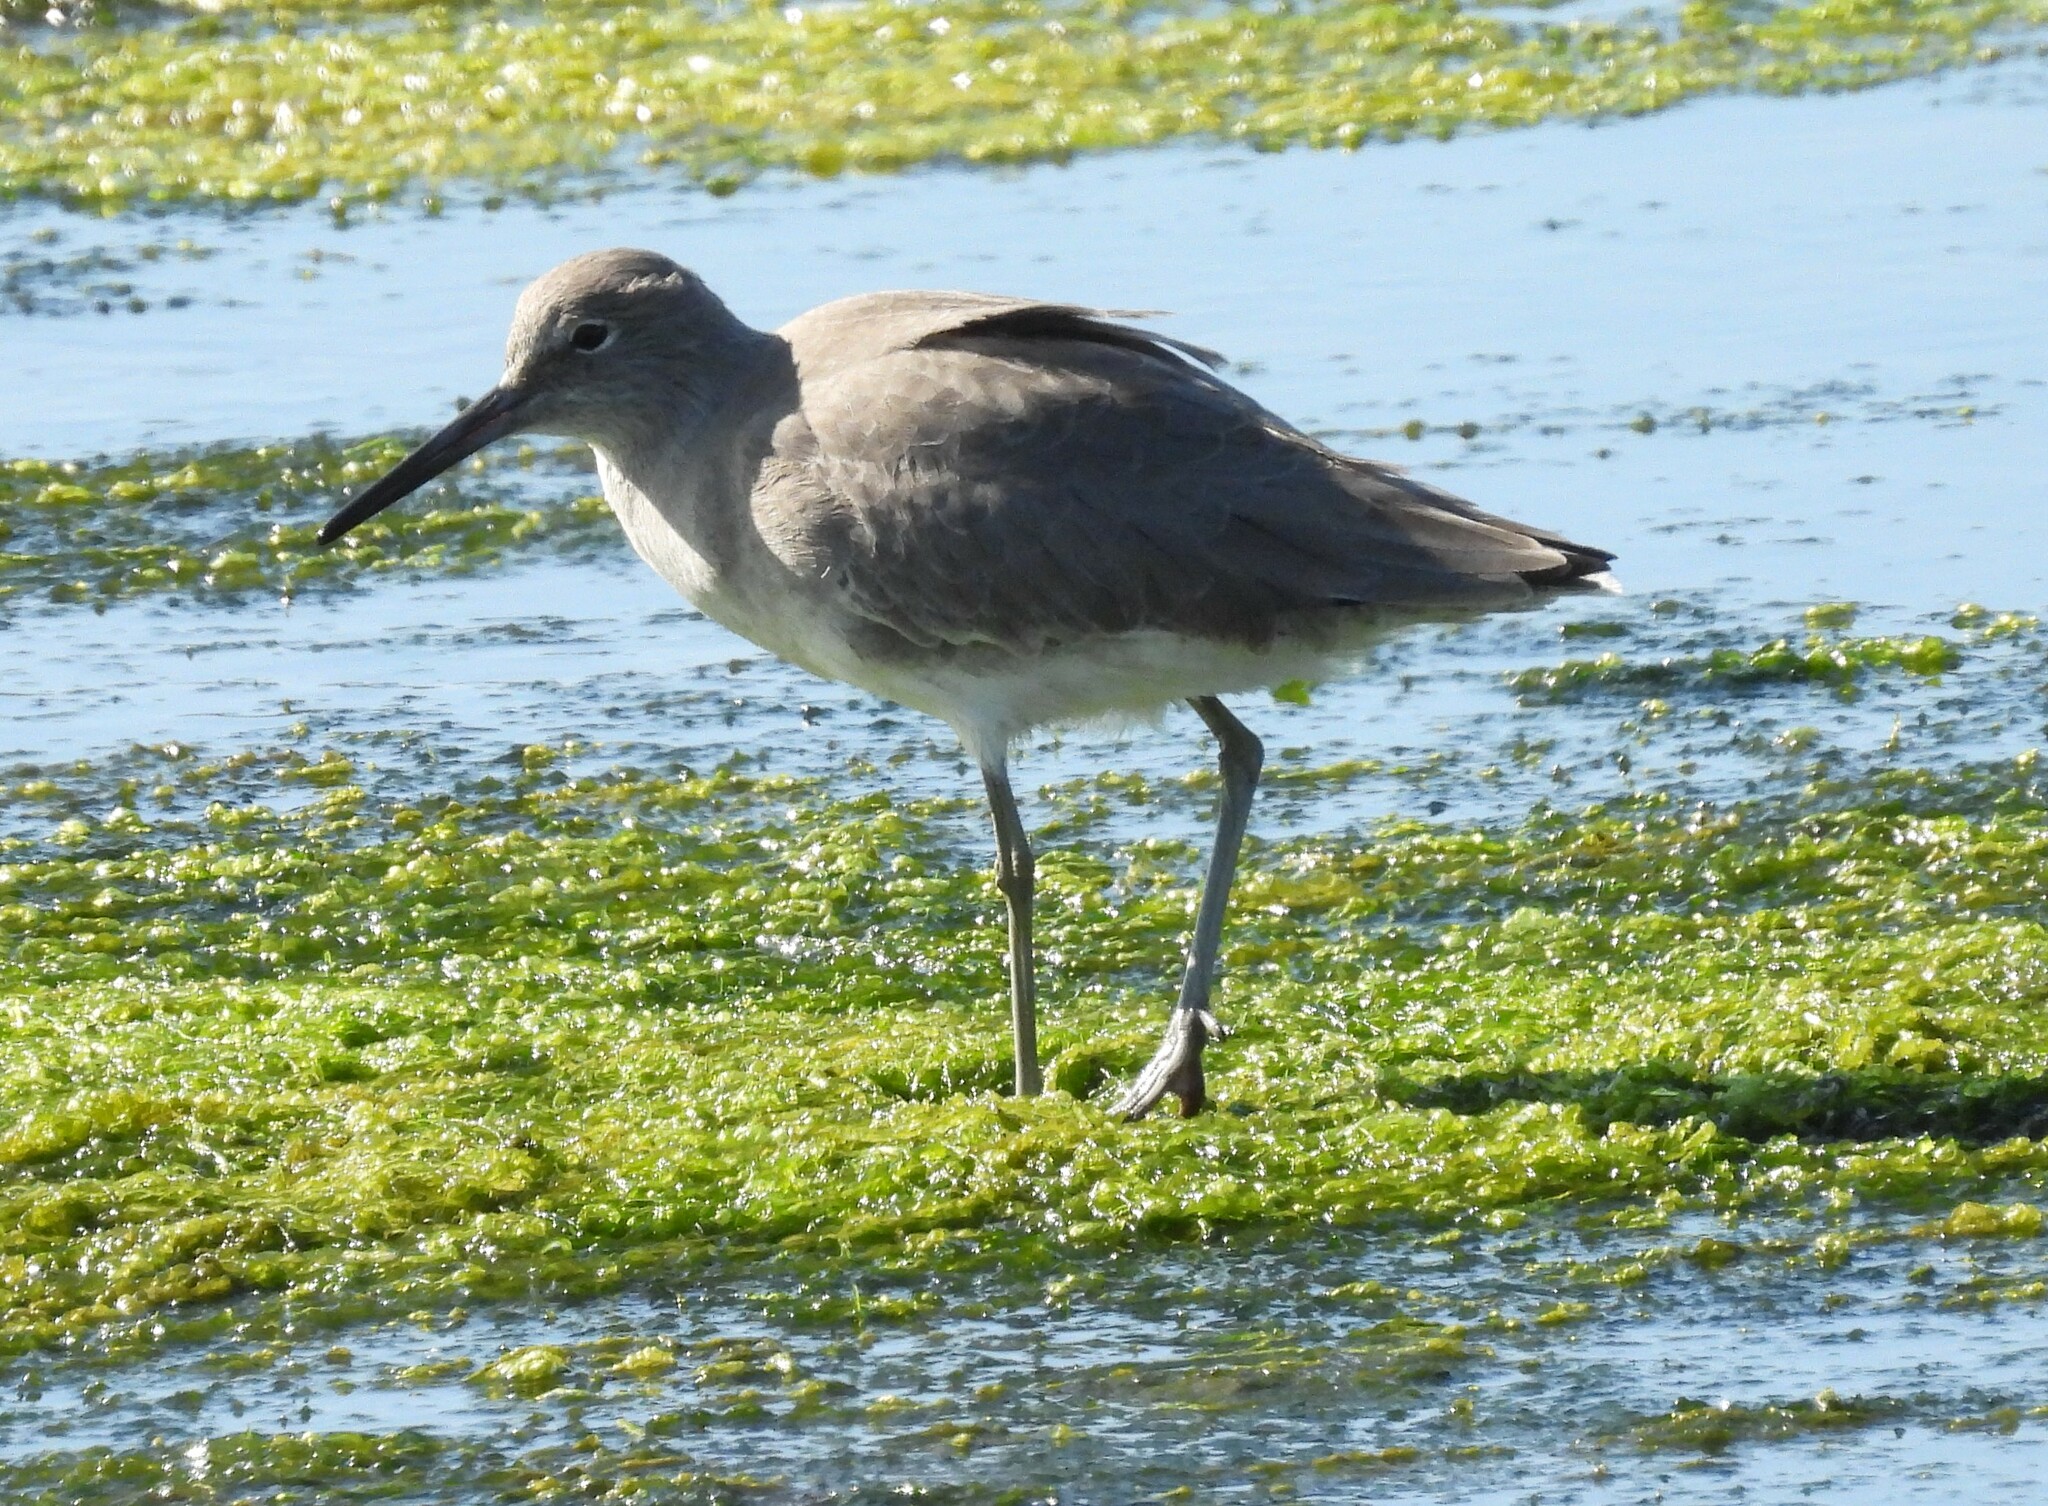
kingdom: Animalia
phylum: Chordata
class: Aves
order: Charadriiformes
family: Scolopacidae
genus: Tringa
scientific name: Tringa semipalmata
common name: Willet
